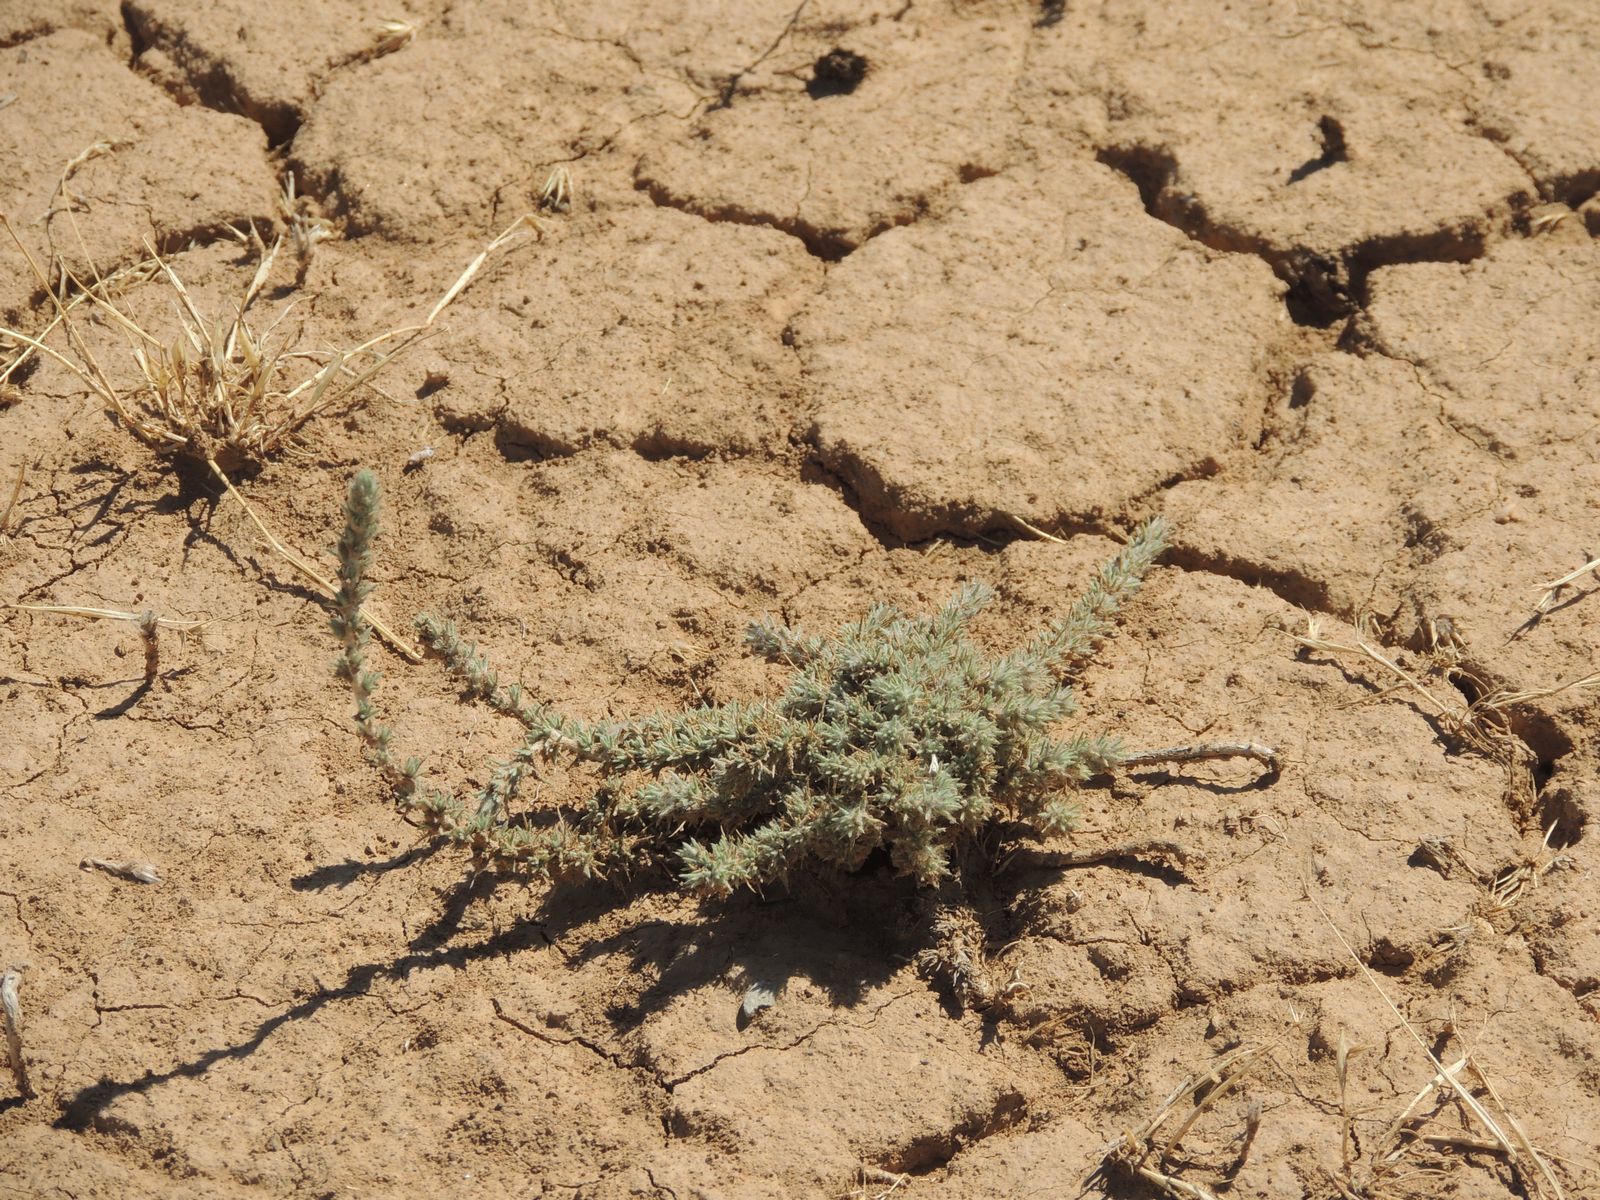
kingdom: Plantae
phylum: Tracheophyta
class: Magnoliopsida
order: Caryophyllales
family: Amaranthaceae
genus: Camphorosma
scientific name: Camphorosma monspeliaca
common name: Camphorfume
